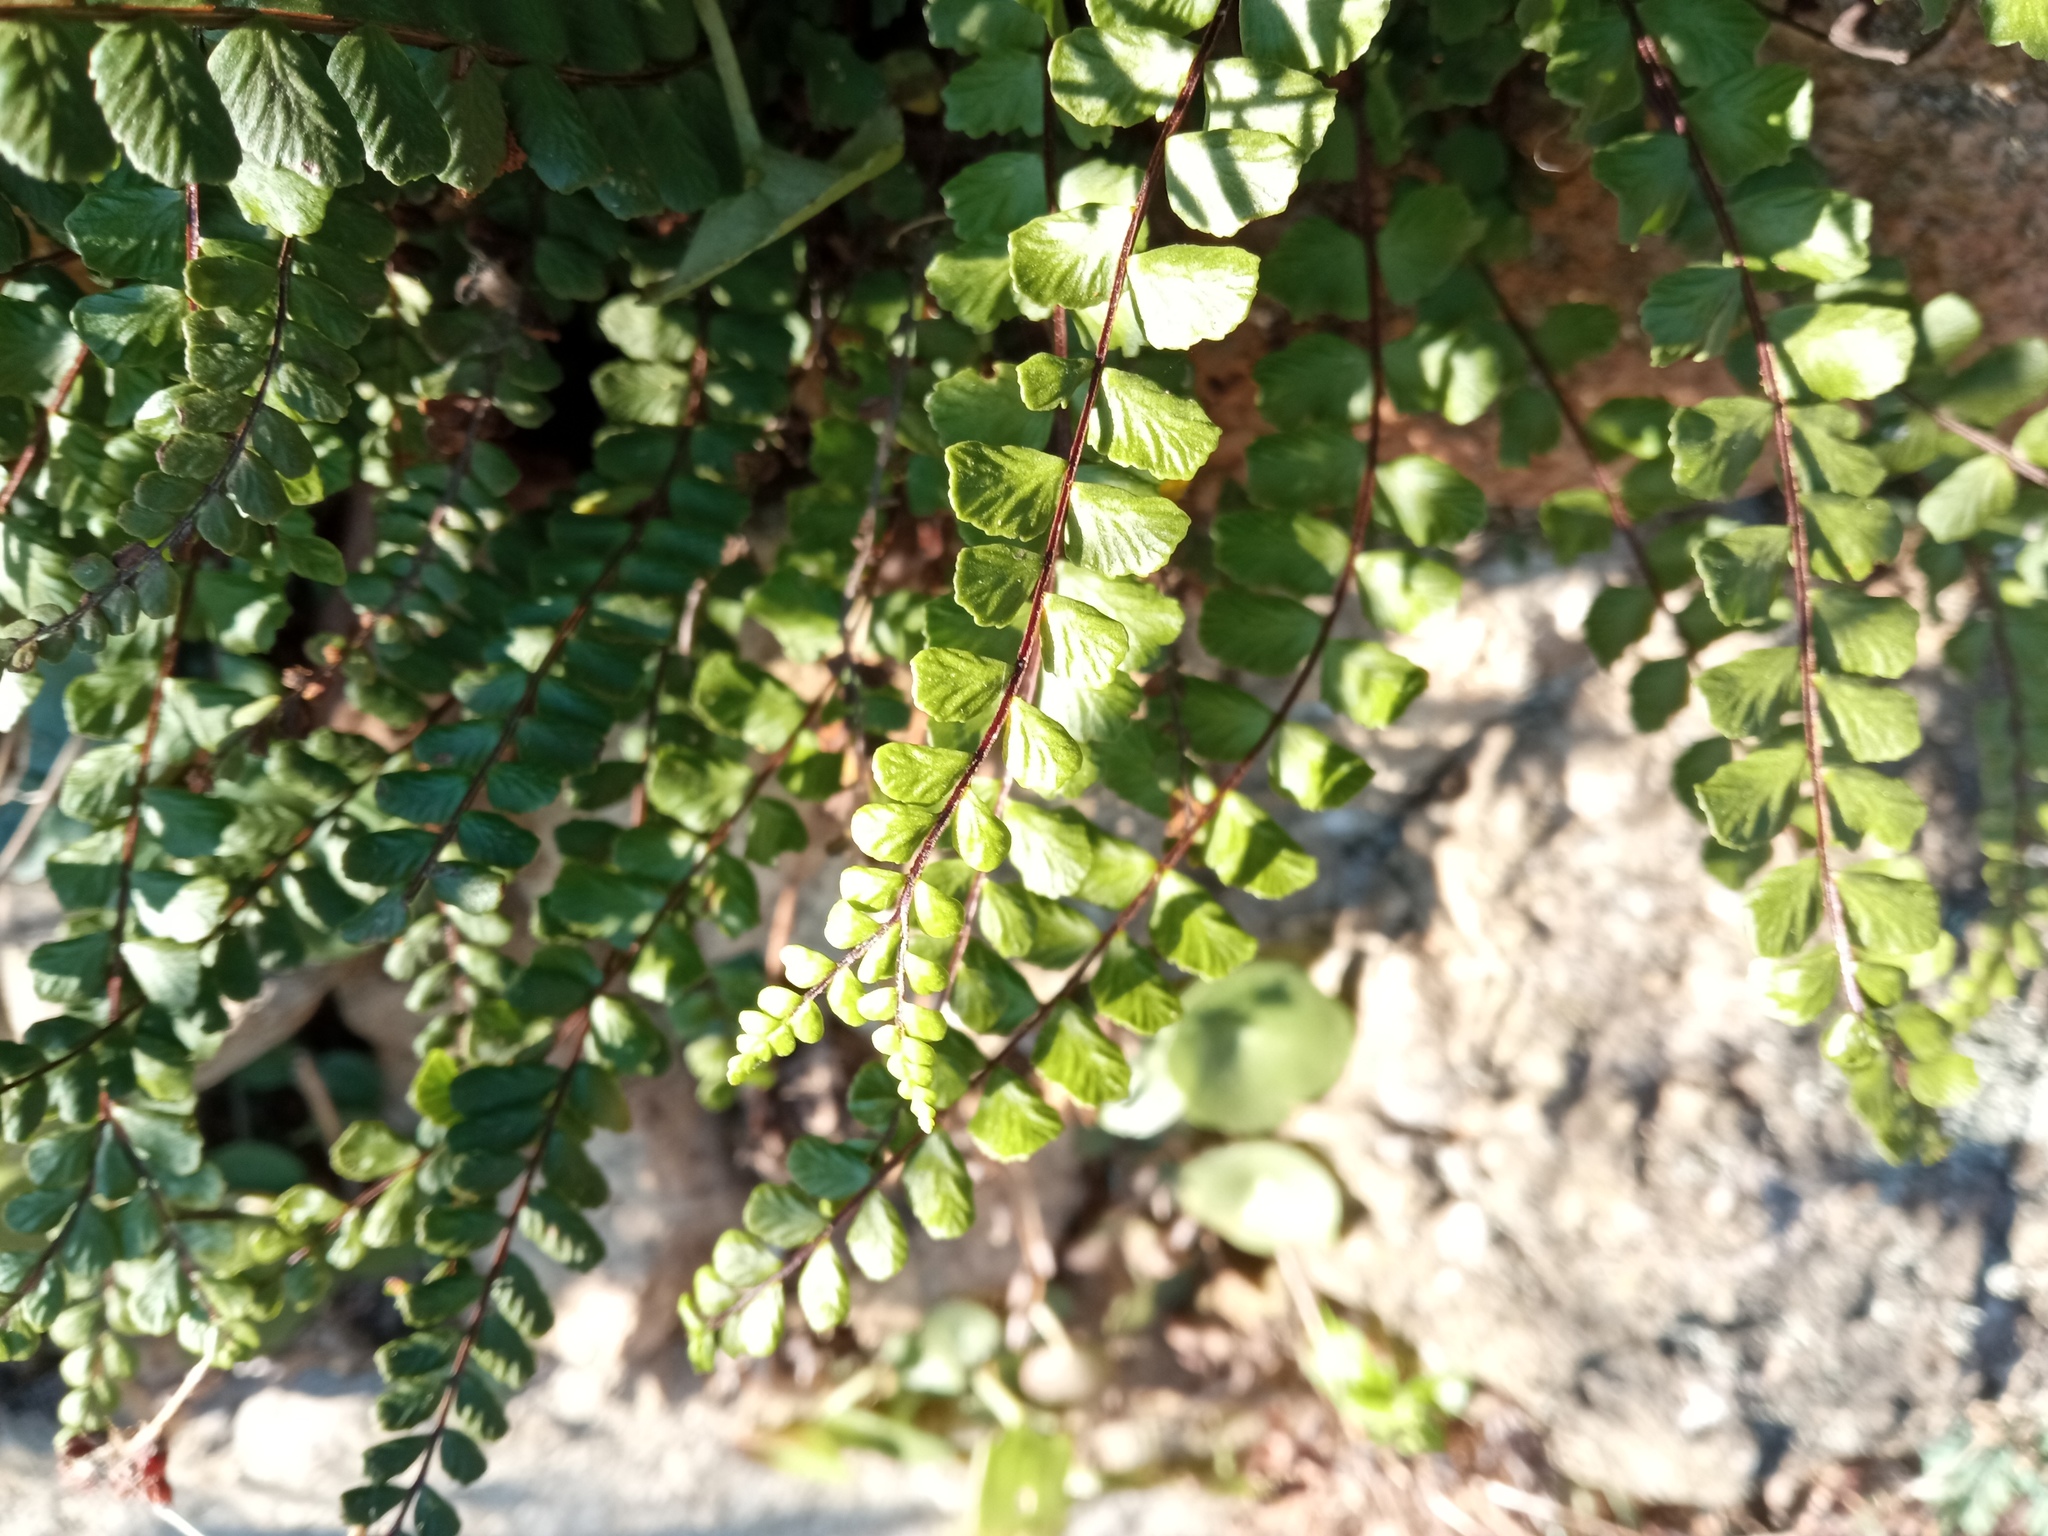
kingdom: Plantae
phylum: Tracheophyta
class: Polypodiopsida
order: Polypodiales
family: Aspleniaceae
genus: Asplenium
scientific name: Asplenium trichomanes
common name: Maidenhair spleenwort
